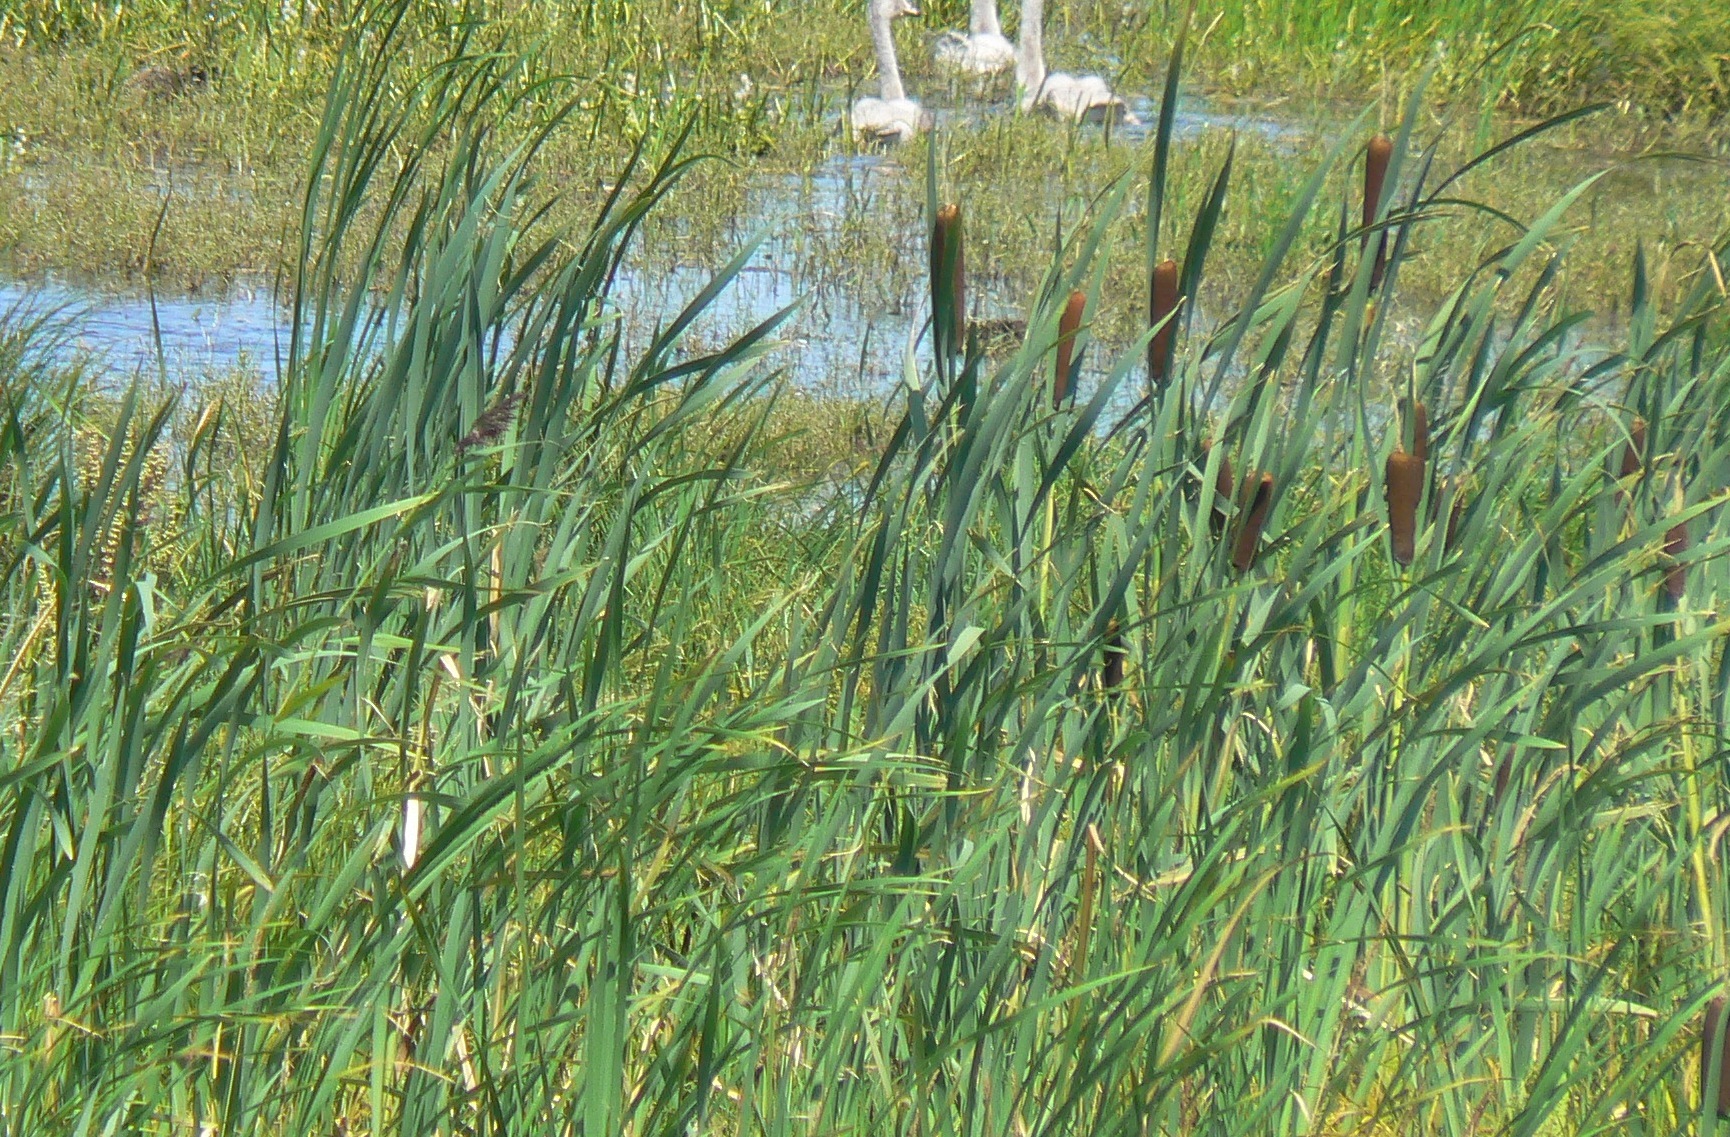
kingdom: Plantae
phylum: Tracheophyta
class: Liliopsida
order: Poales
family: Typhaceae
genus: Typha
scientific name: Typha latifolia
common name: Broadleaf cattail
